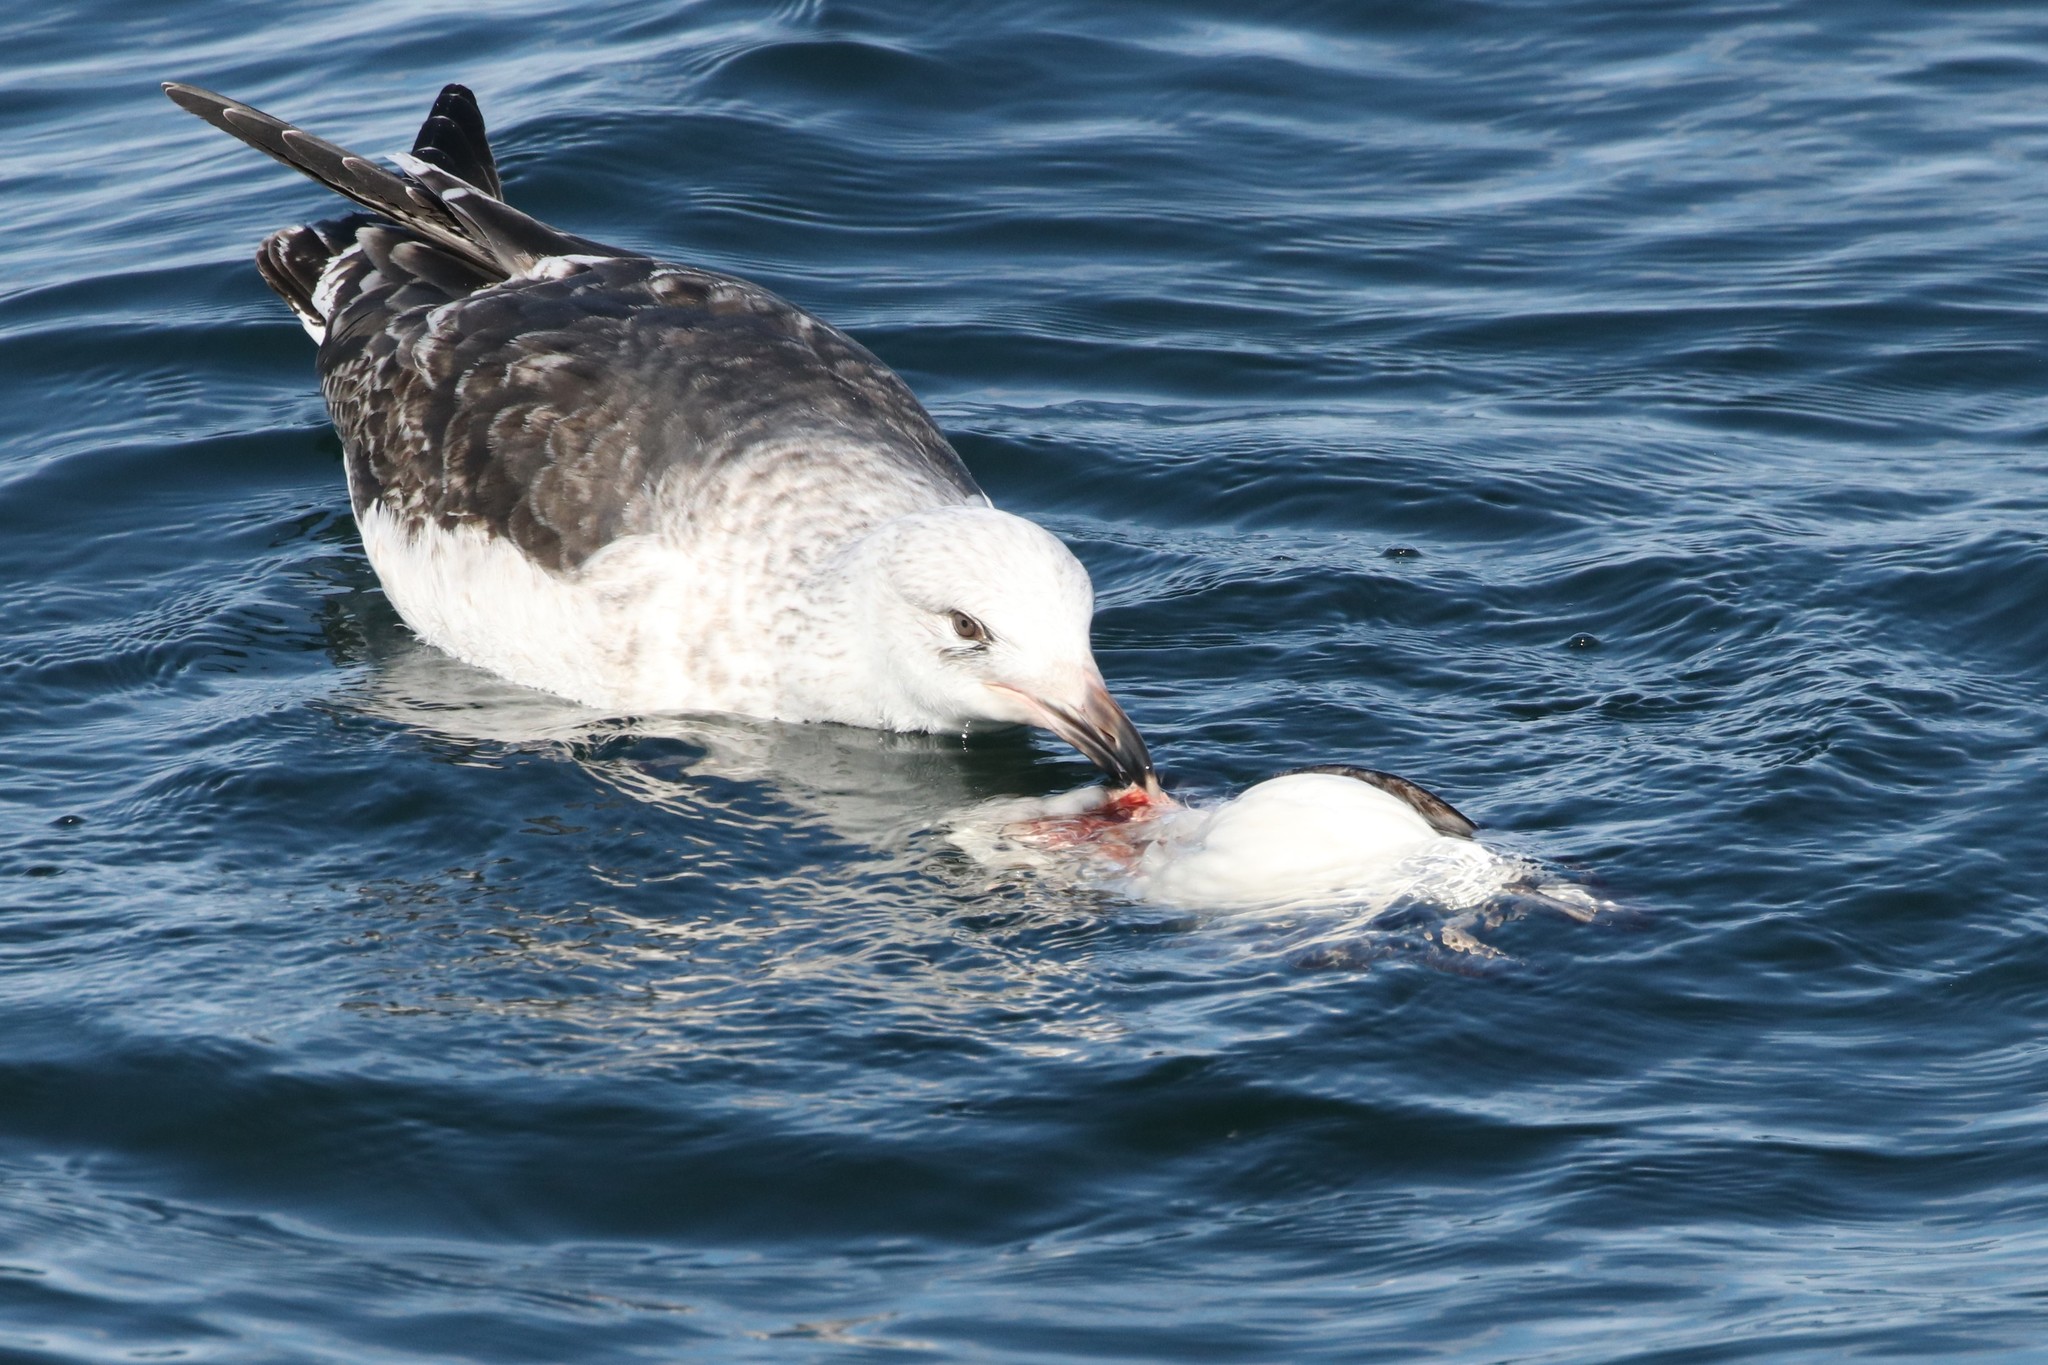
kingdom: Animalia
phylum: Chordata
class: Aves
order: Charadriiformes
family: Laridae
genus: Larus
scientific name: Larus marinus
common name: Great black-backed gull
